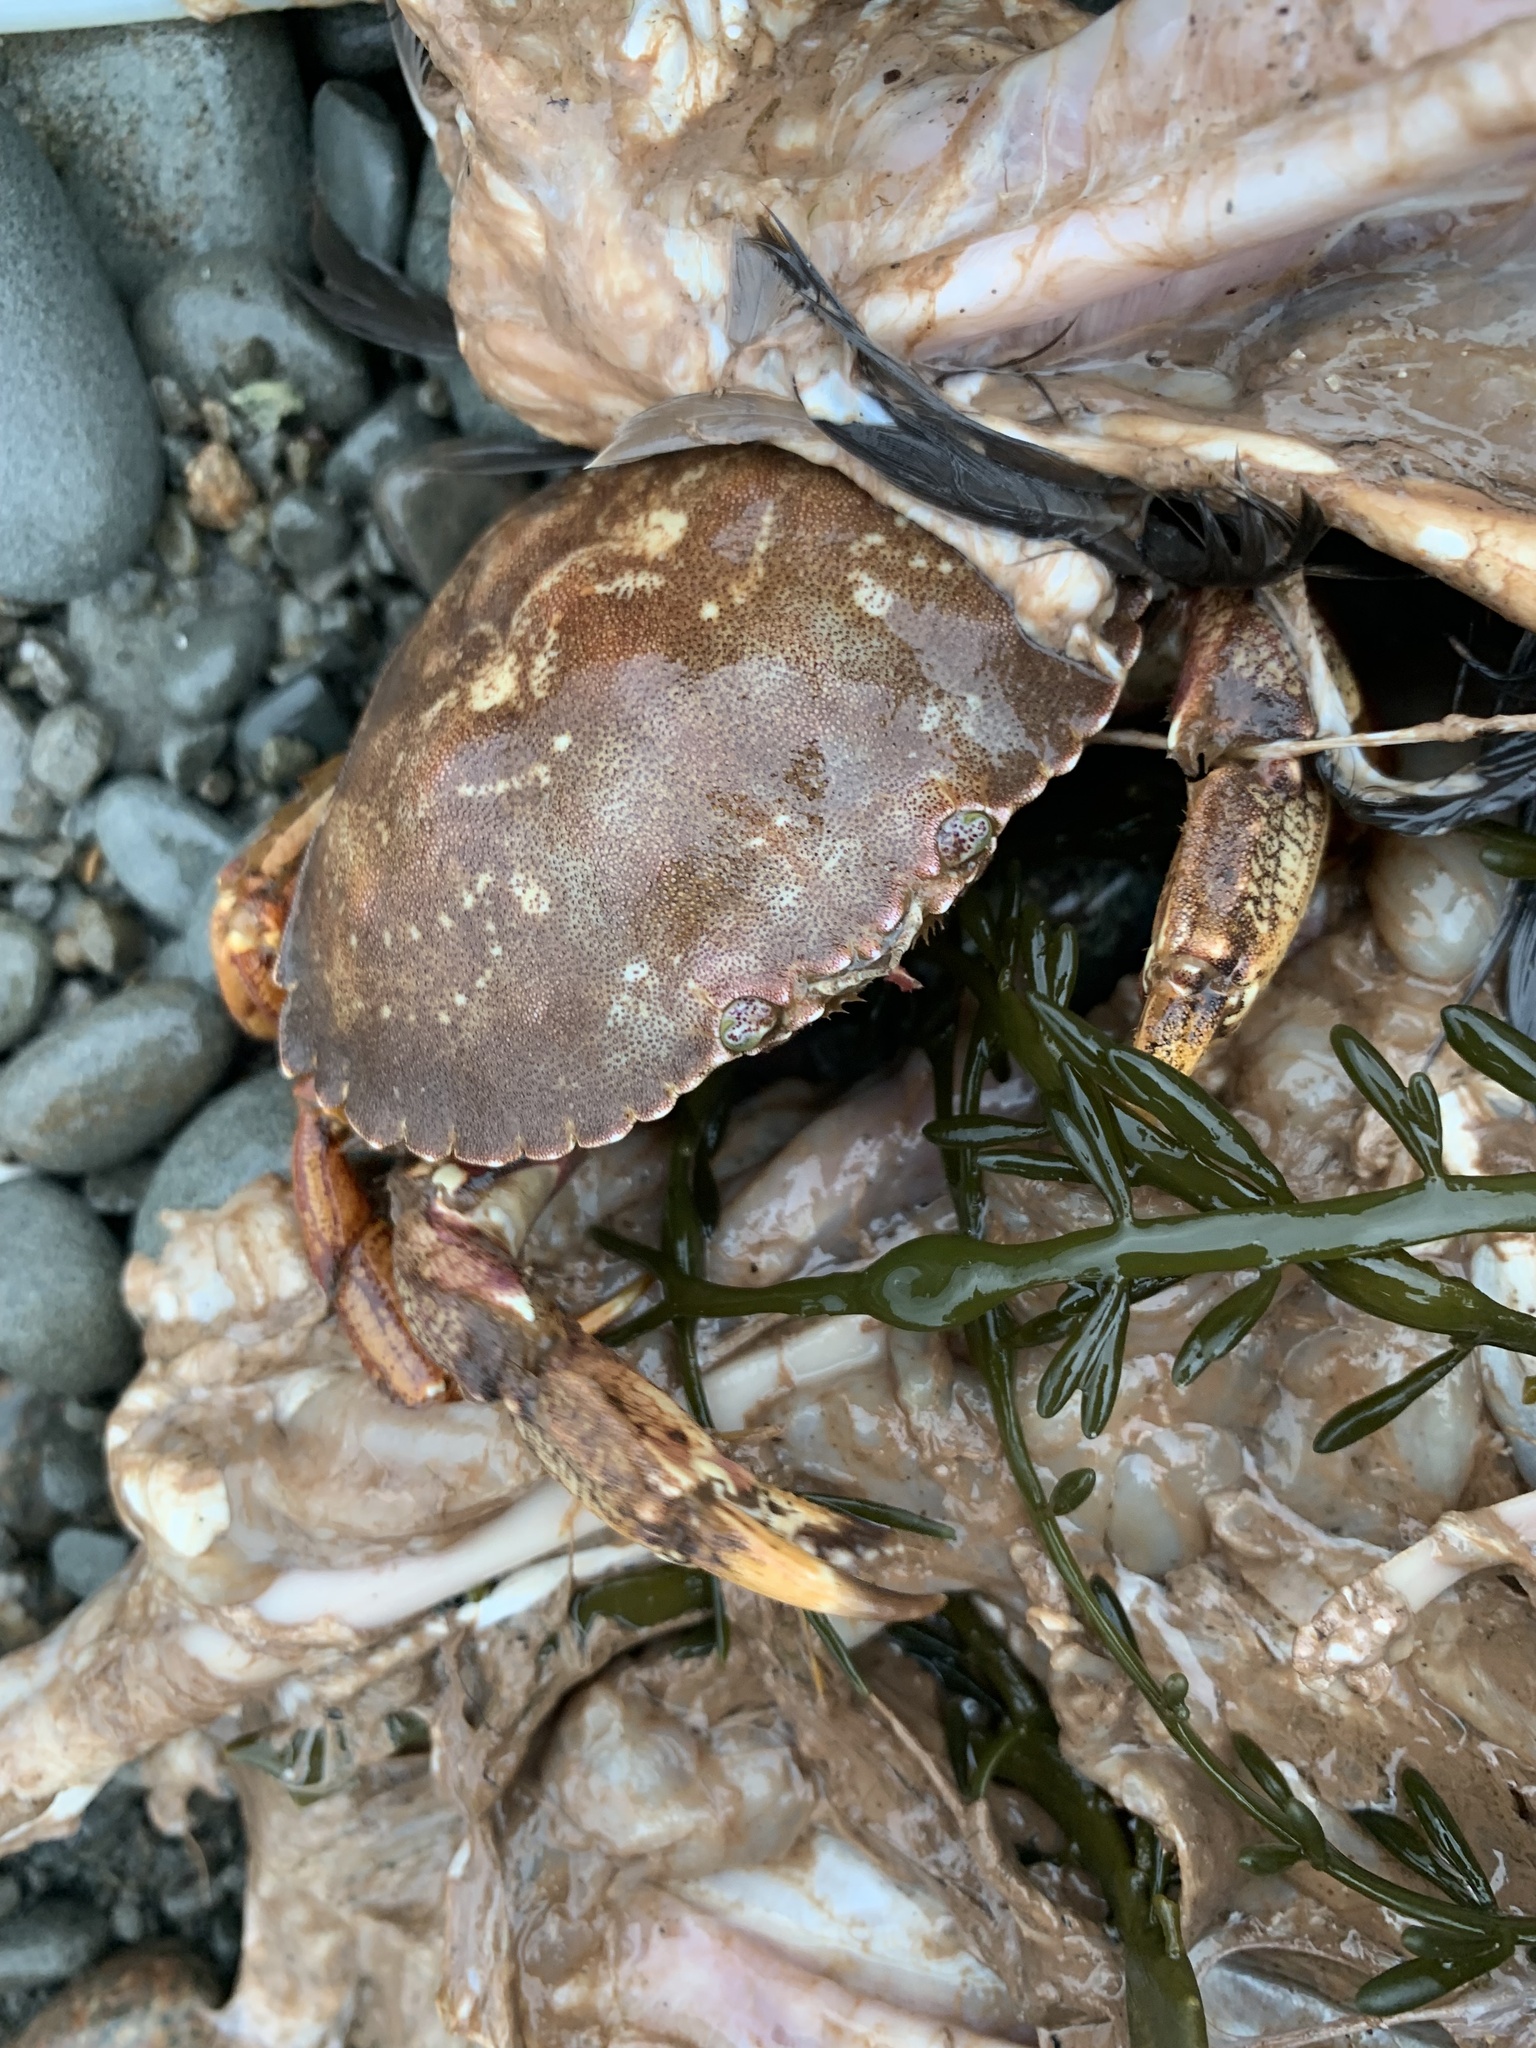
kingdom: Animalia
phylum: Arthropoda
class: Malacostraca
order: Decapoda
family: Cancridae
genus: Cancer
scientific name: Cancer irroratus
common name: Atlantic rock crab
